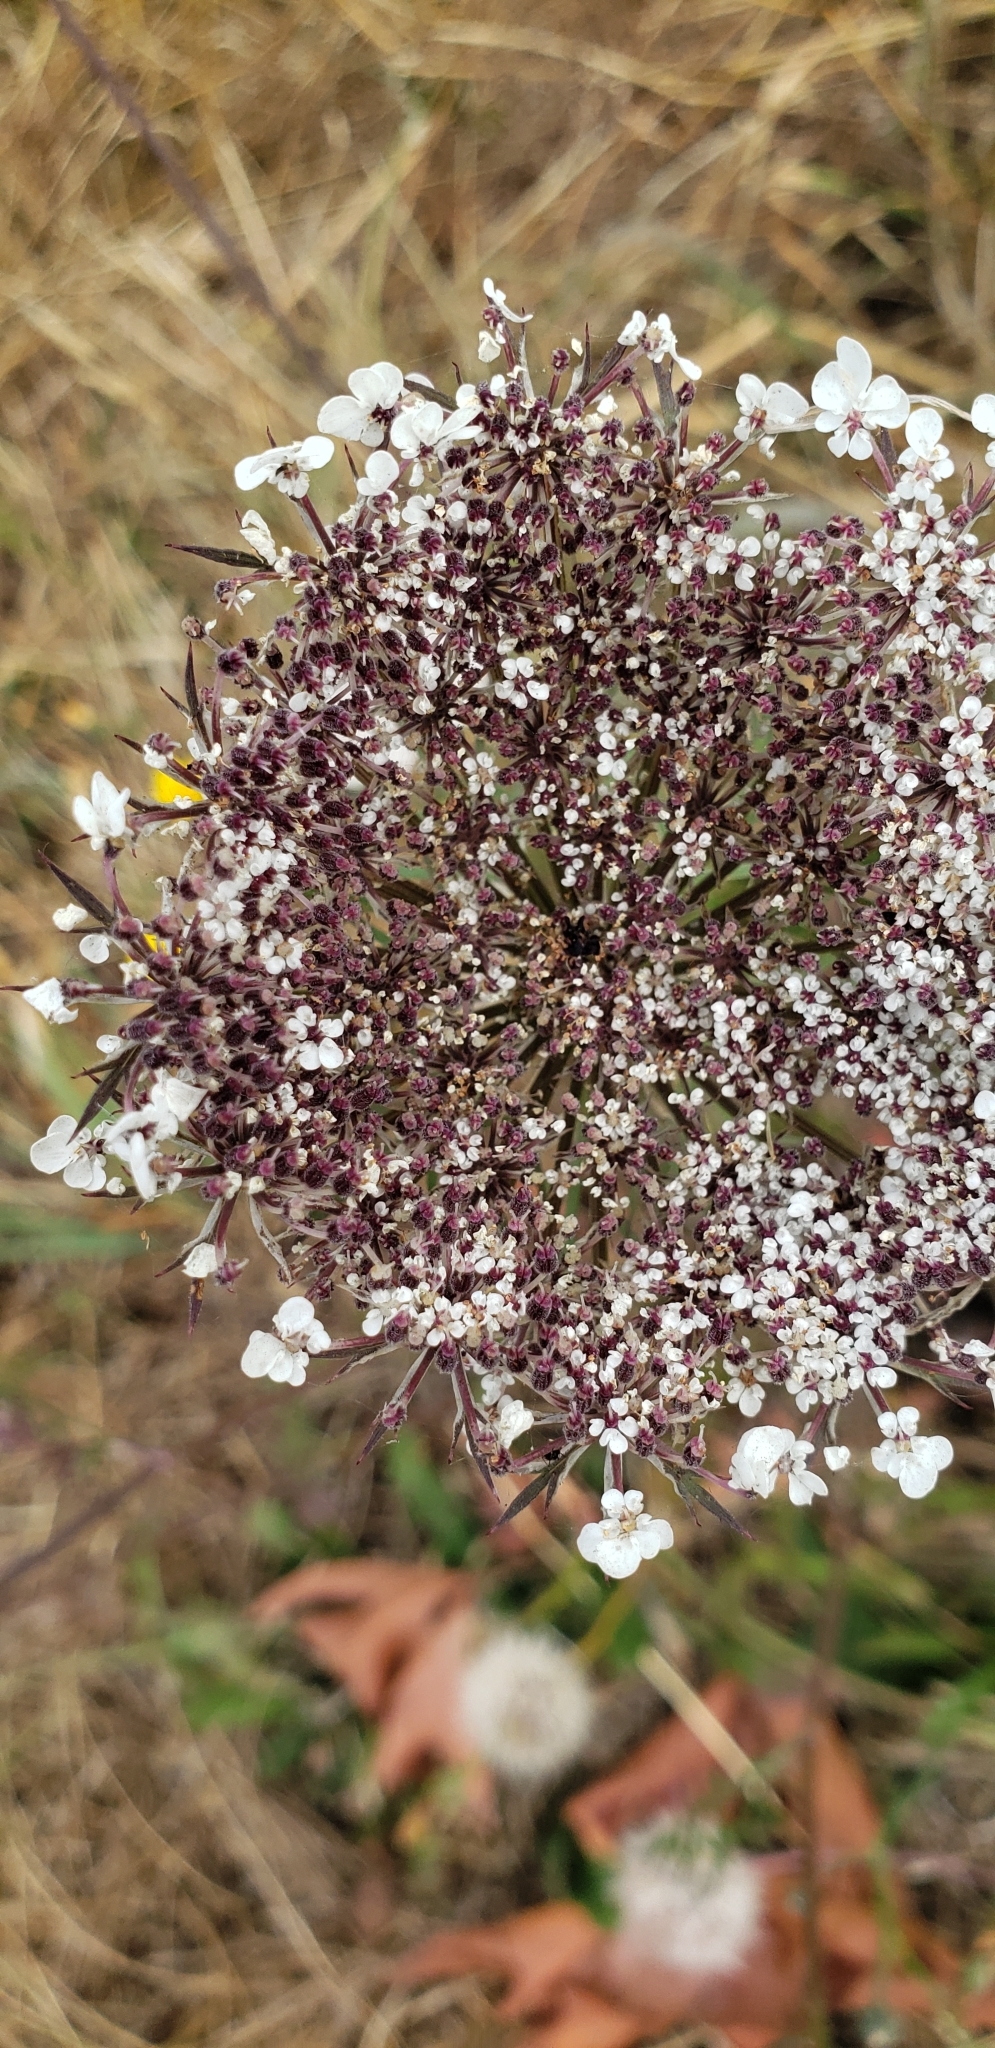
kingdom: Plantae
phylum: Tracheophyta
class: Magnoliopsida
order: Apiales
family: Apiaceae
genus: Daucus
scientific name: Daucus carota
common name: Wild carrot
